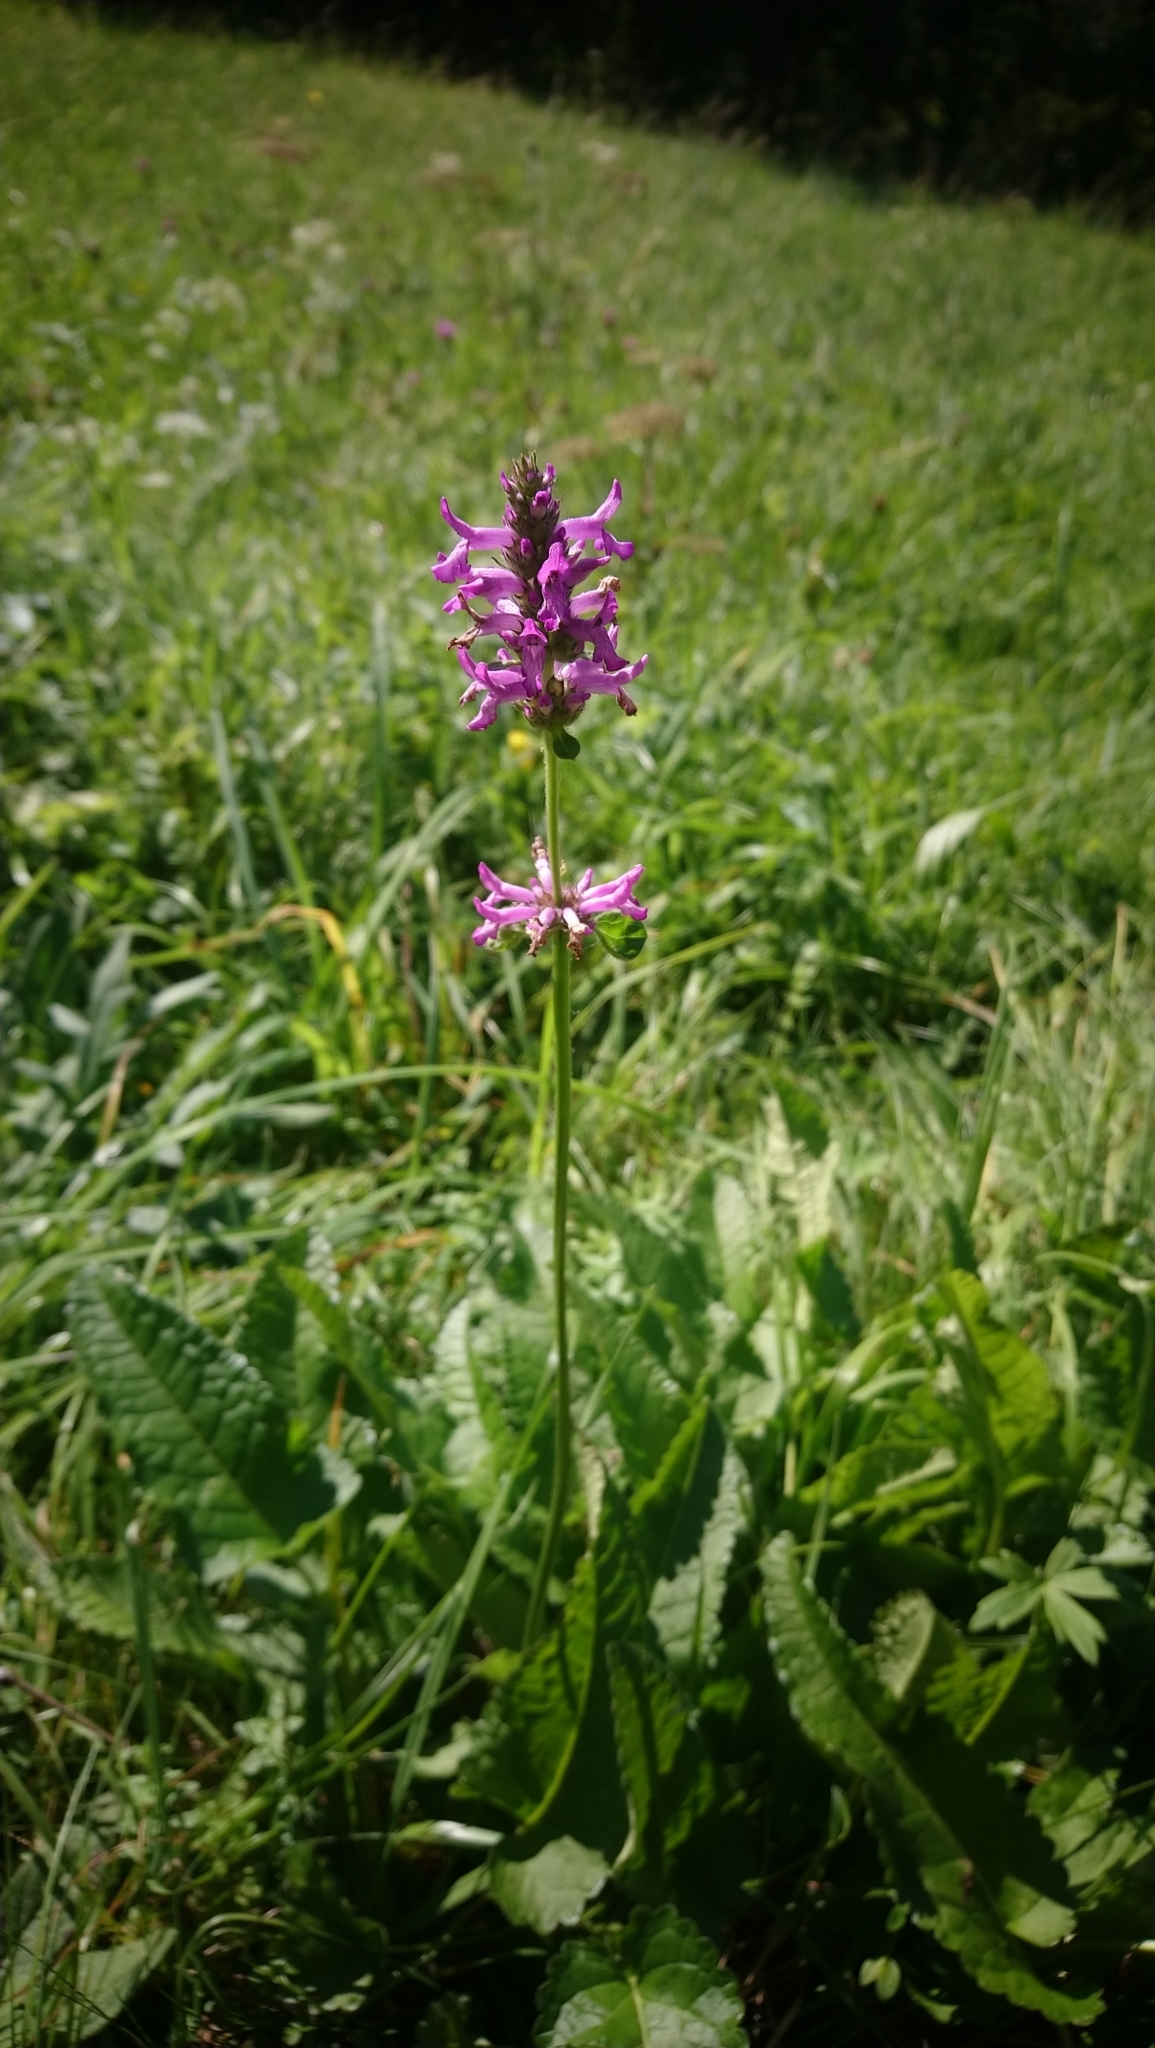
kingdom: Plantae
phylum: Tracheophyta
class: Magnoliopsida
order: Lamiales
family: Lamiaceae
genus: Betonica
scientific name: Betonica officinalis
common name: Bishop's-wort
